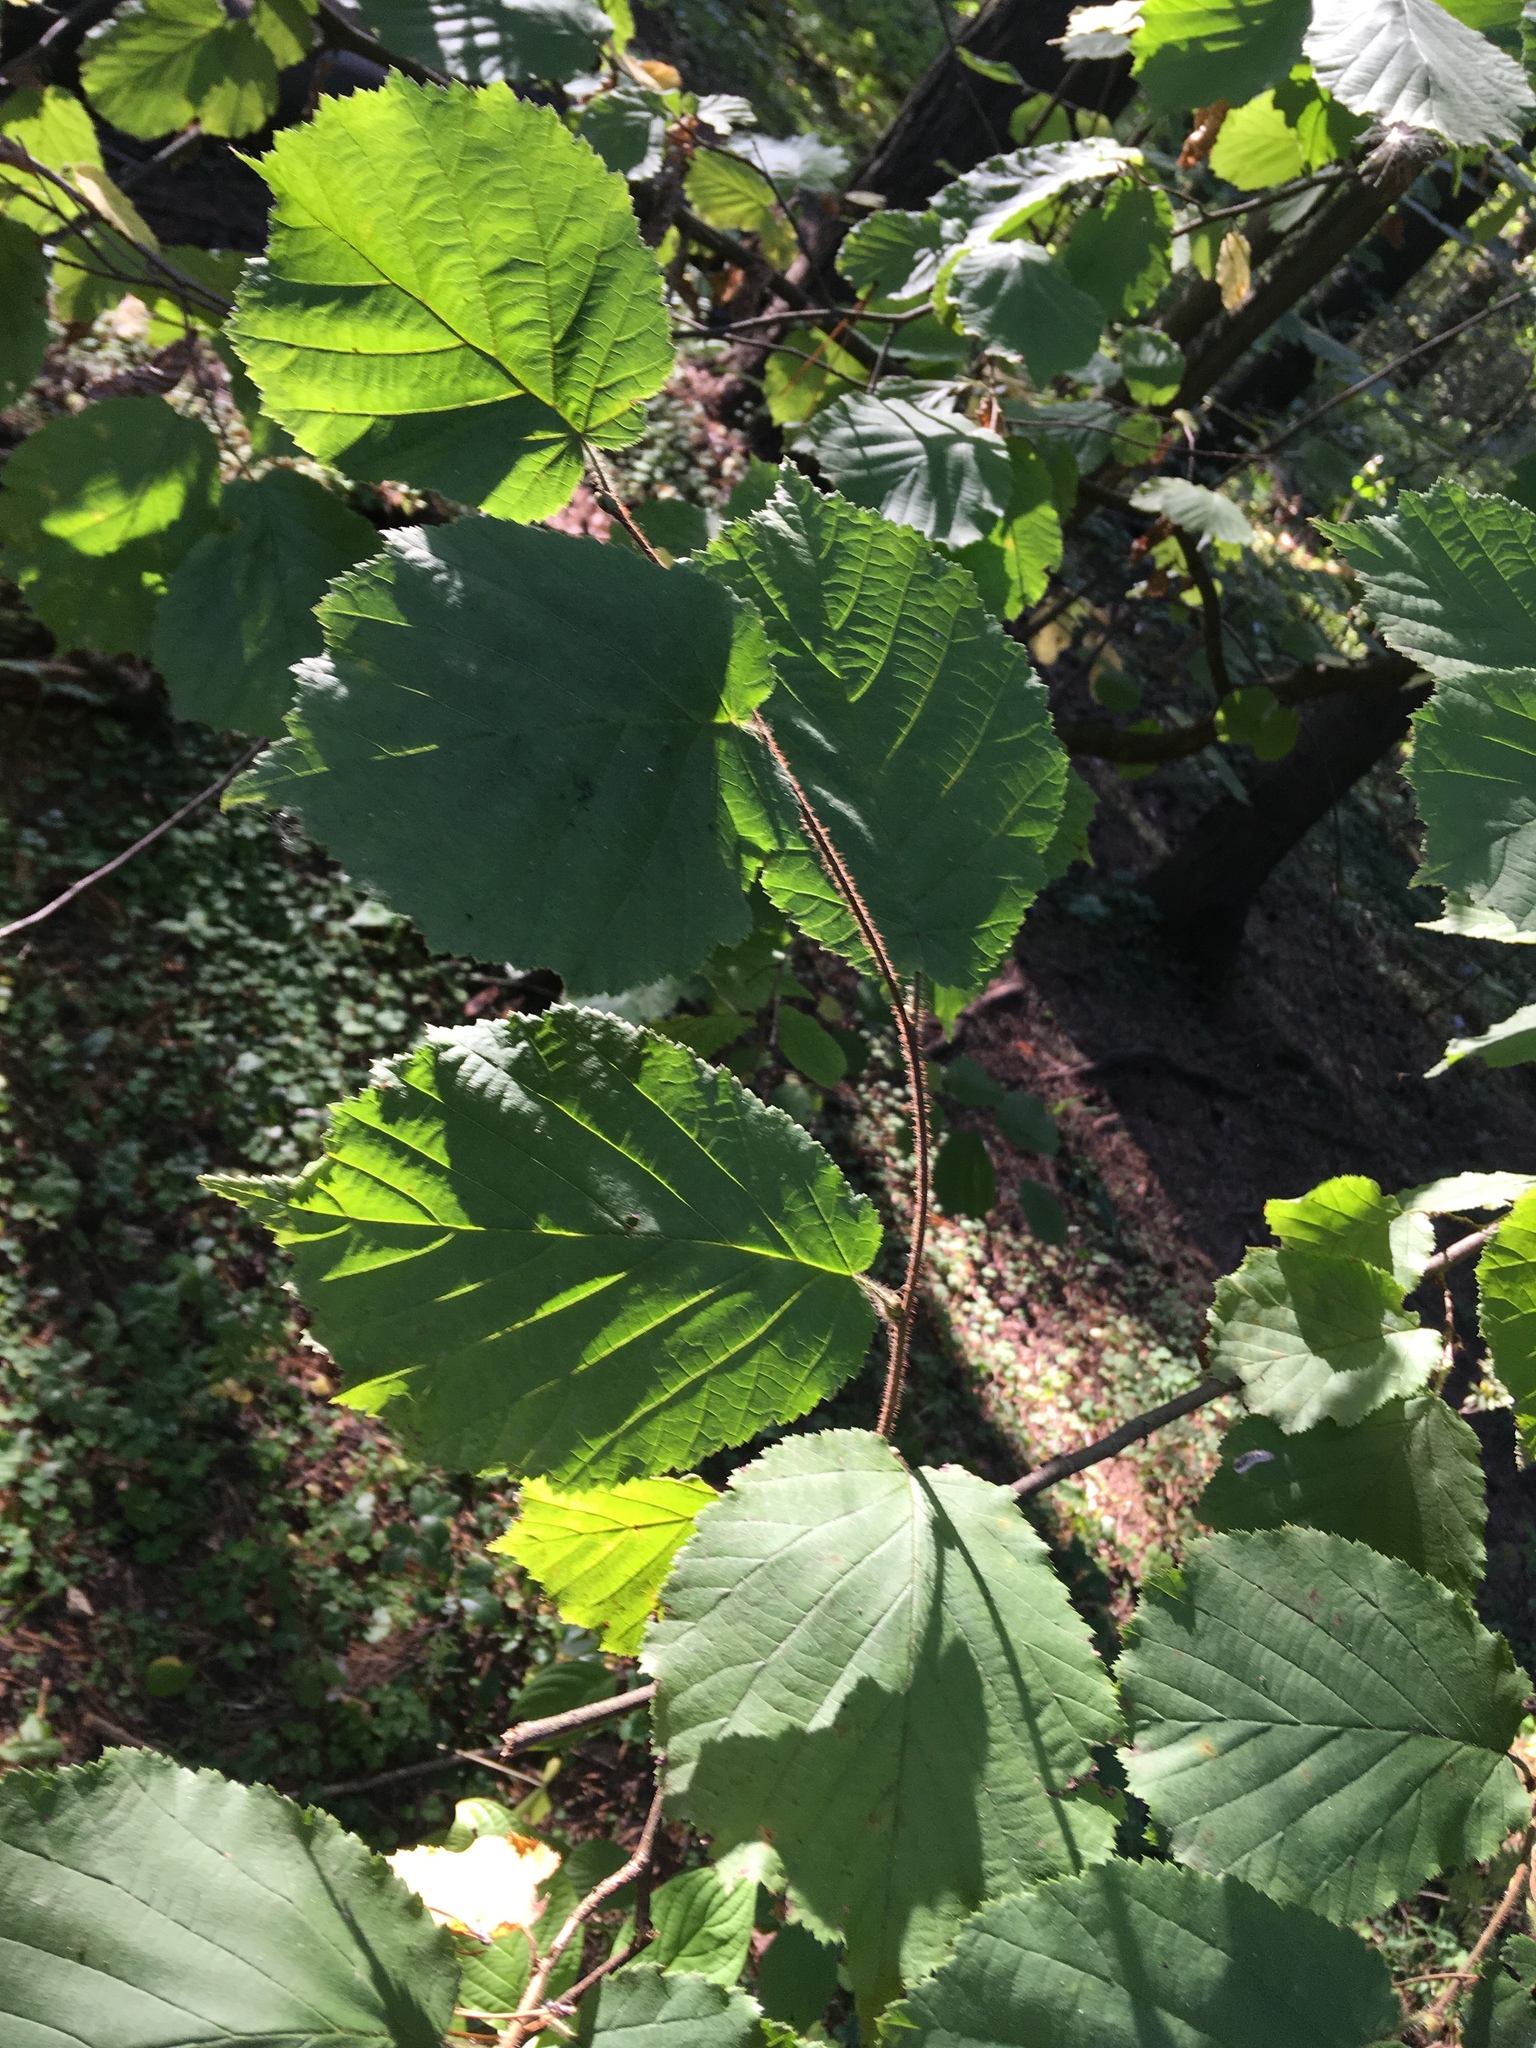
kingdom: Plantae
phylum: Tracheophyta
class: Magnoliopsida
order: Fagales
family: Betulaceae
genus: Corylus
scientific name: Corylus avellana
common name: European hazel
